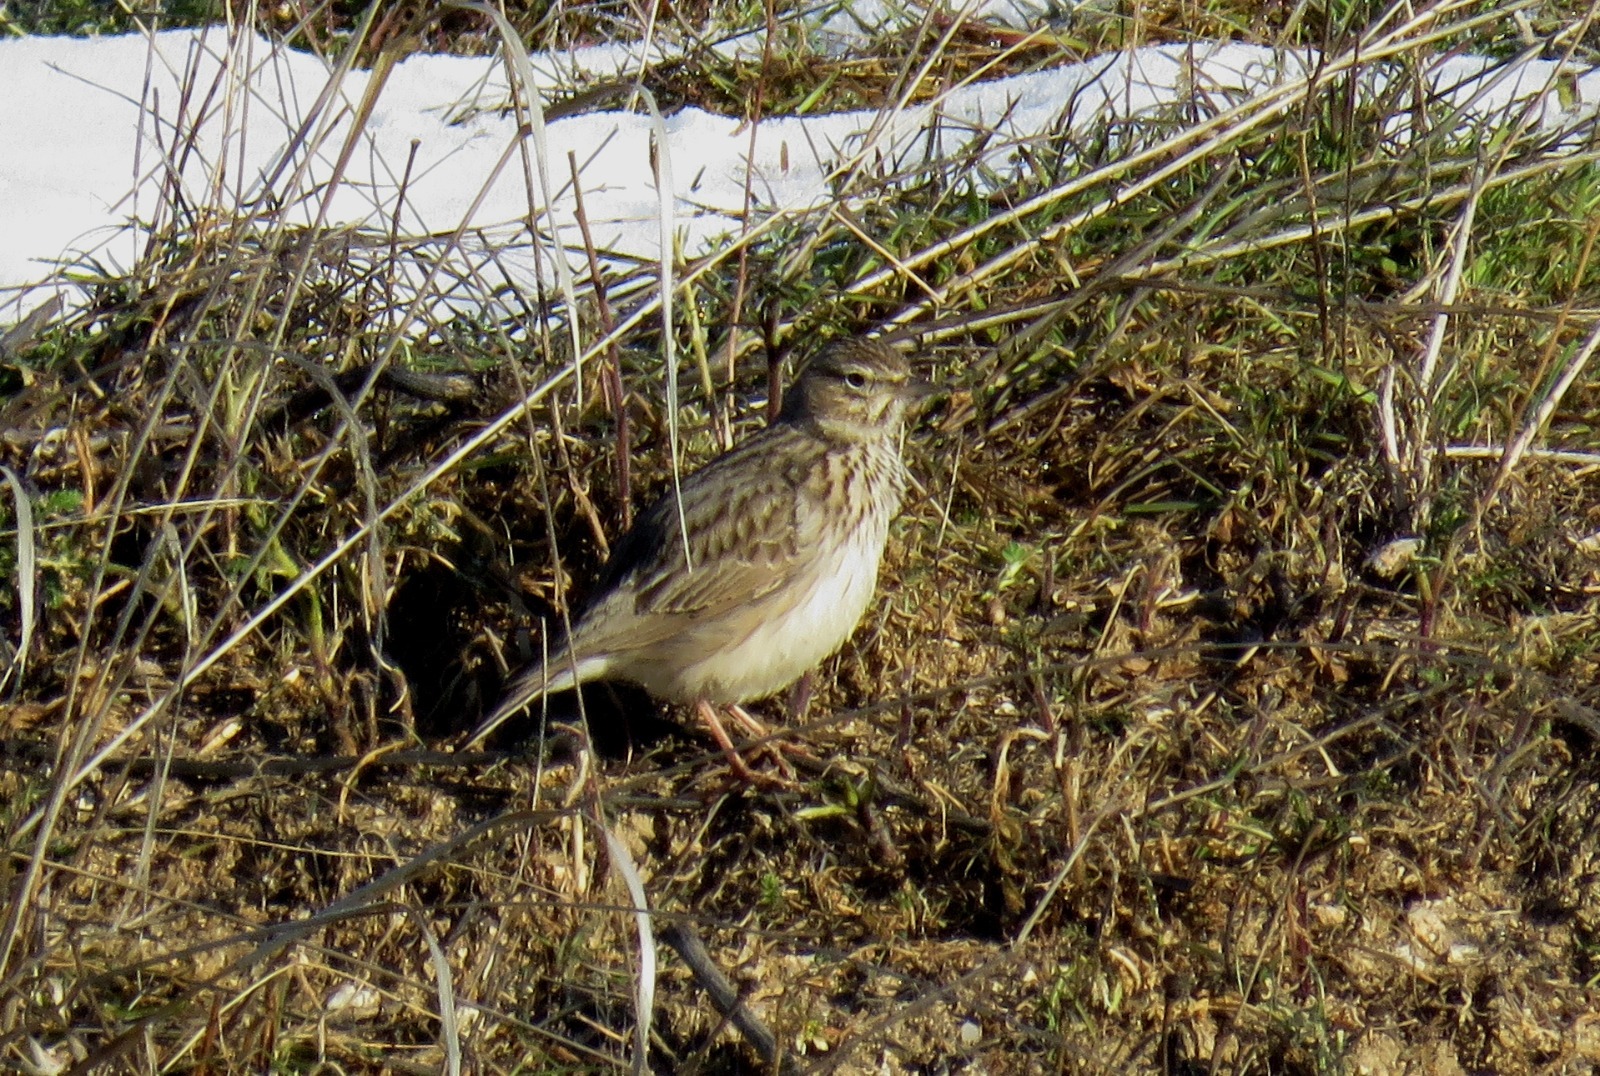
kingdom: Animalia
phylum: Chordata
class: Aves
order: Passeriformes
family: Alaudidae
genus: Galerida
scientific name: Galerida theklae
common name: Thekla lark
